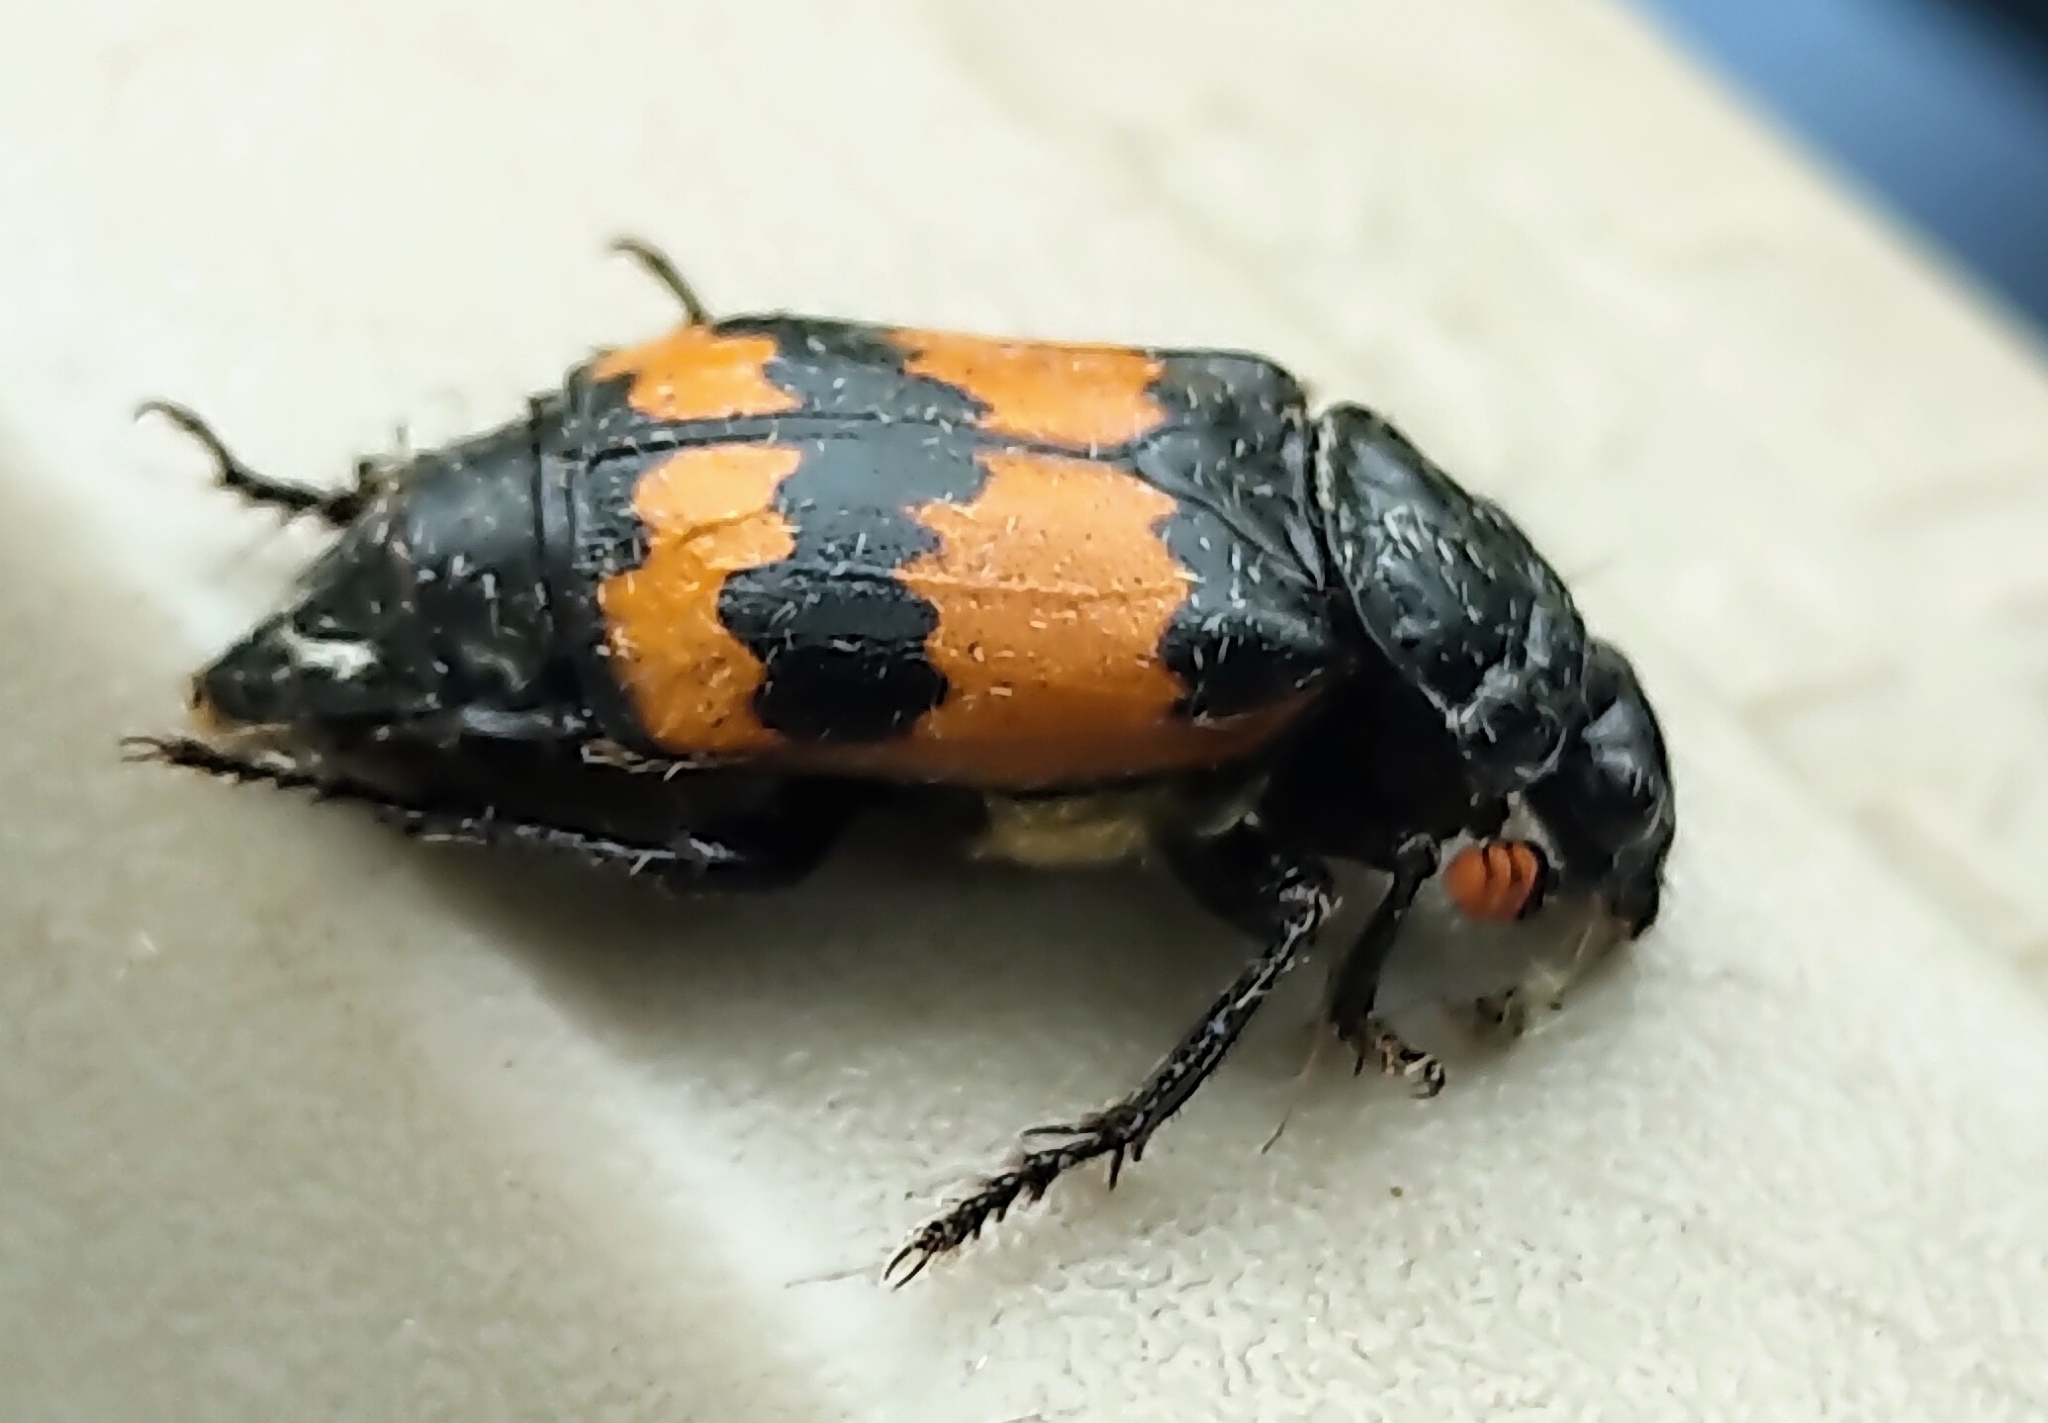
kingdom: Animalia
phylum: Arthropoda
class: Insecta
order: Coleoptera
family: Staphylinidae
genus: Nicrophorus
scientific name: Nicrophorus hybridus
